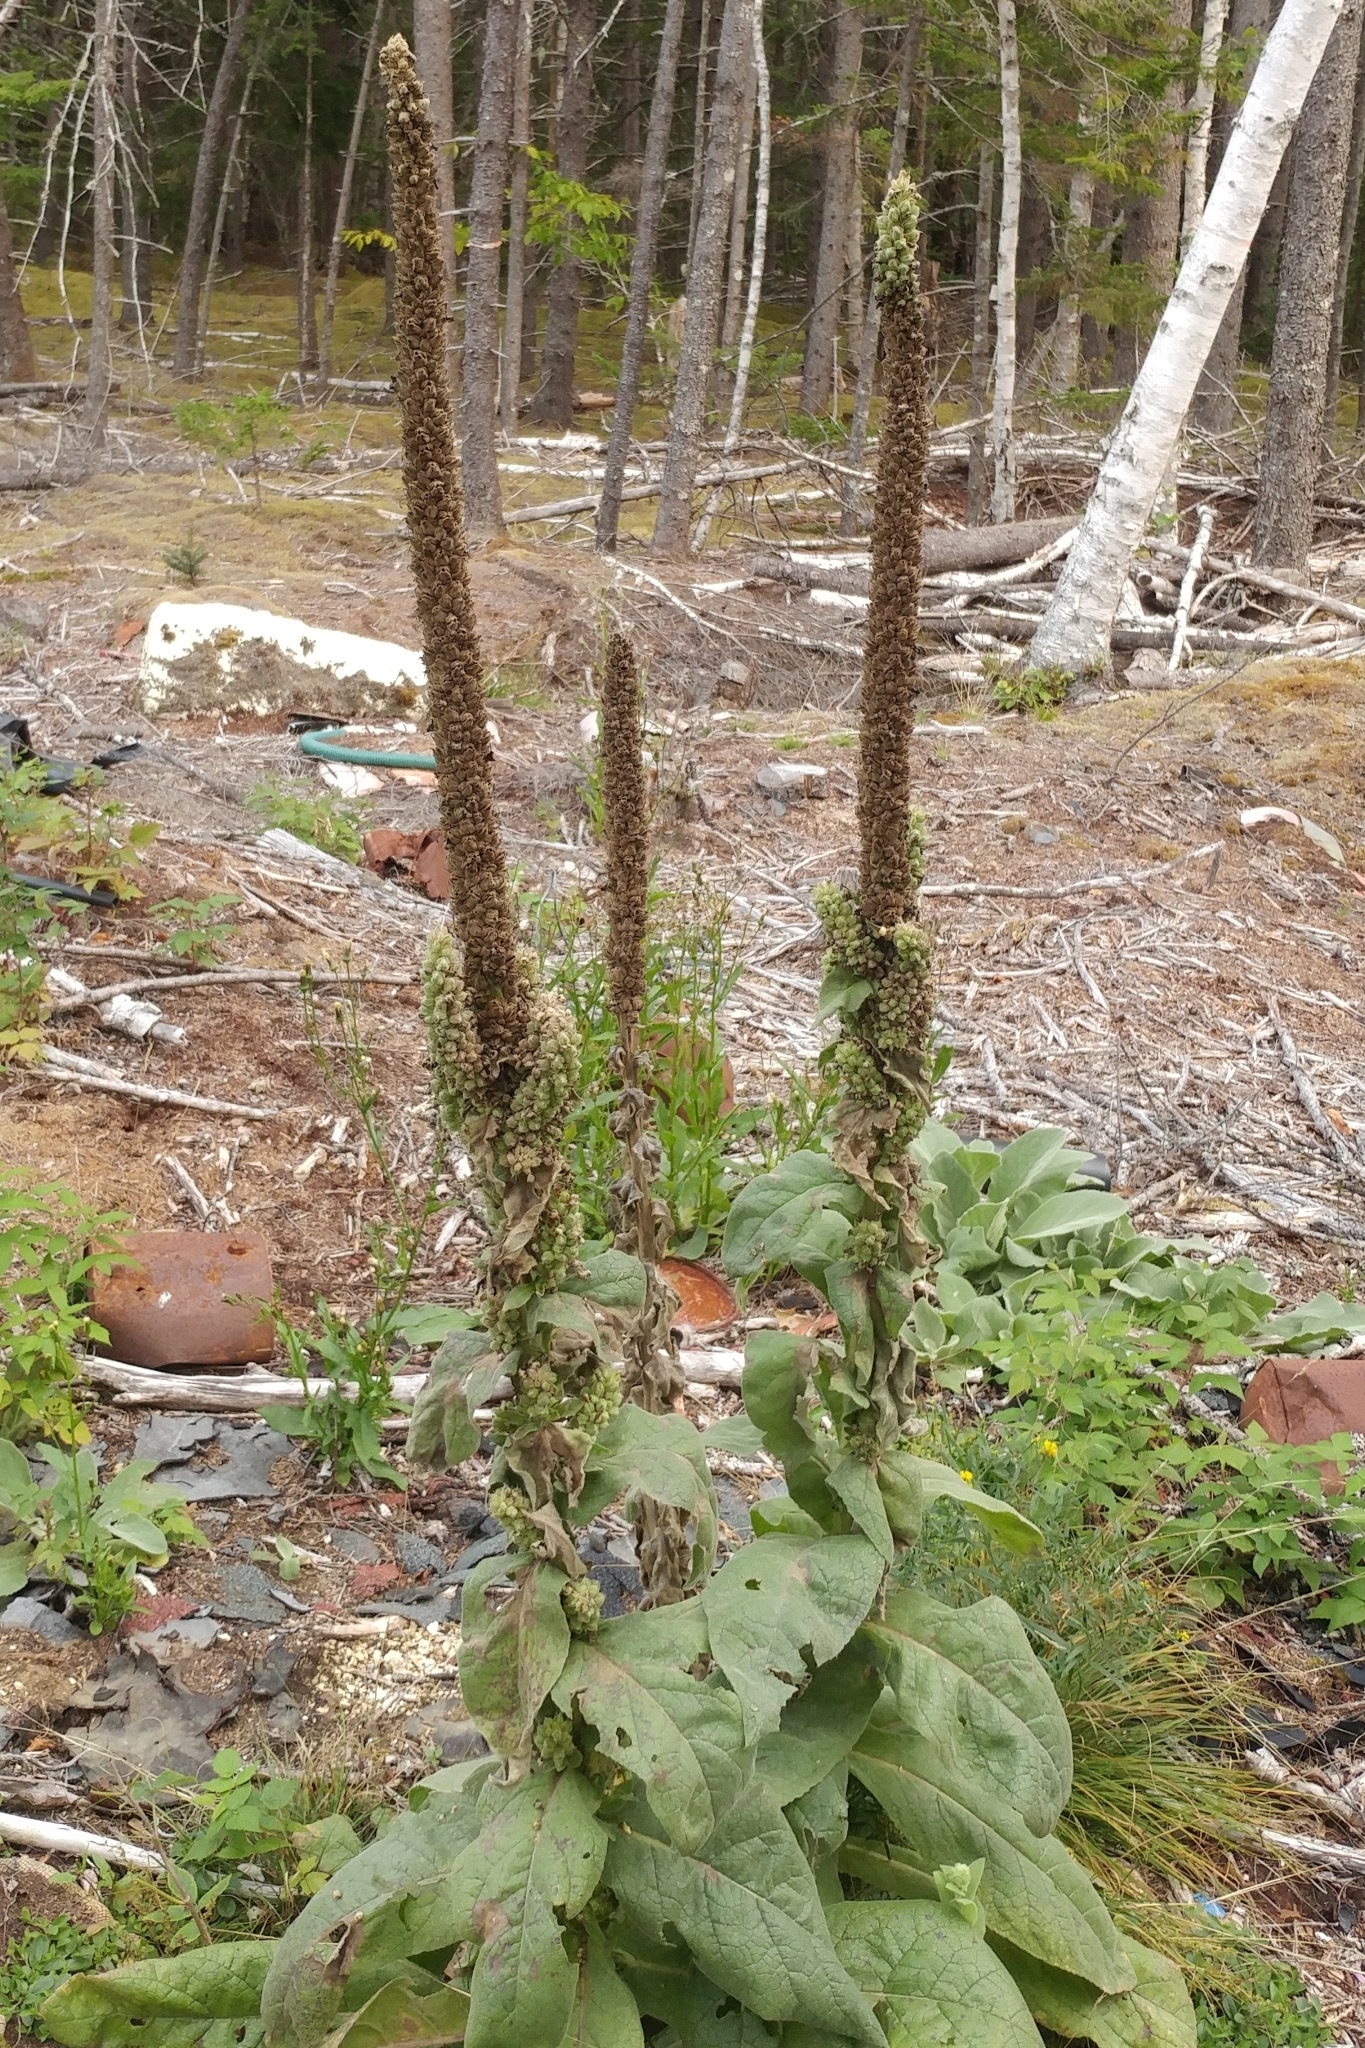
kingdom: Plantae
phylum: Tracheophyta
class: Magnoliopsida
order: Lamiales
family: Scrophulariaceae
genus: Verbascum
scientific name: Verbascum thapsus
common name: Common mullein
